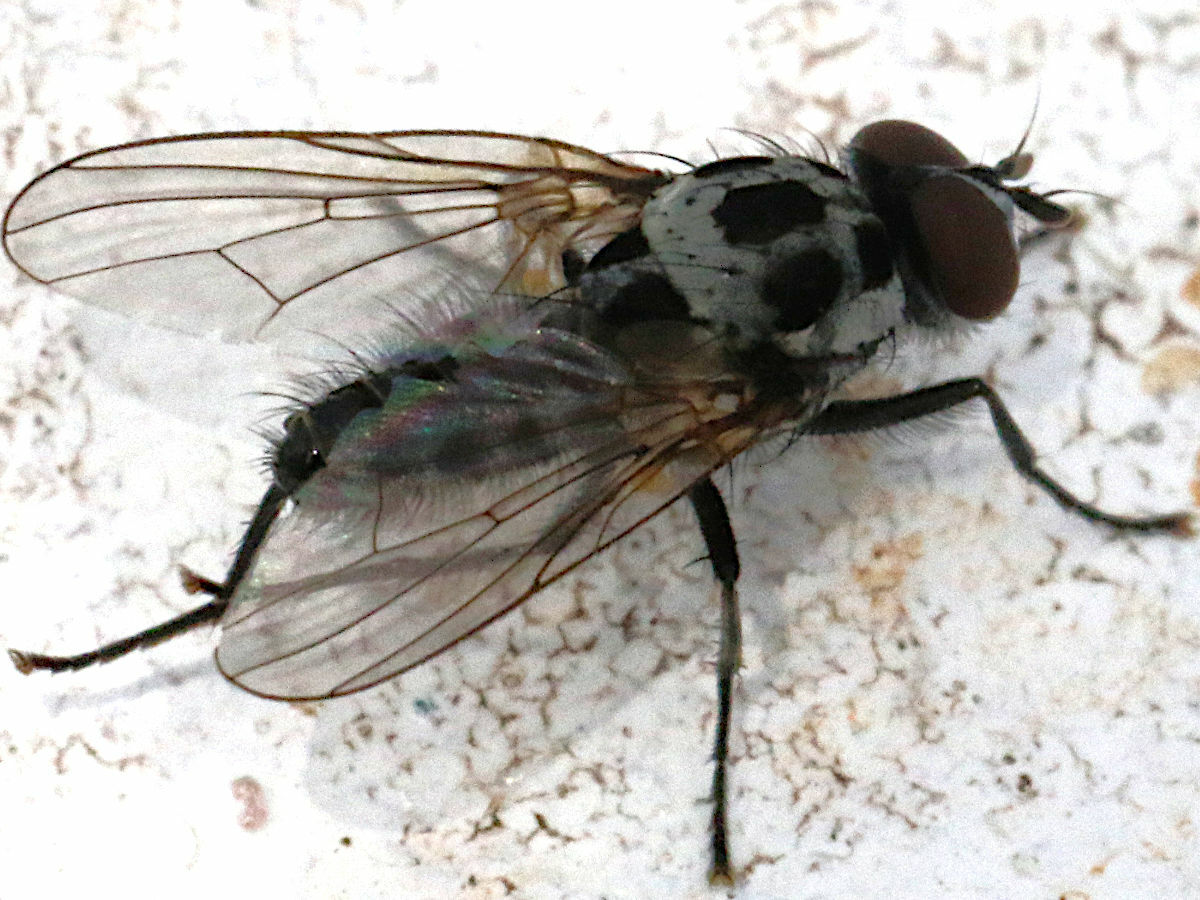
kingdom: Animalia
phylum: Arthropoda
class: Insecta
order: Diptera
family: Anthomyiidae
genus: Anthomyia
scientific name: Anthomyia procellaris
